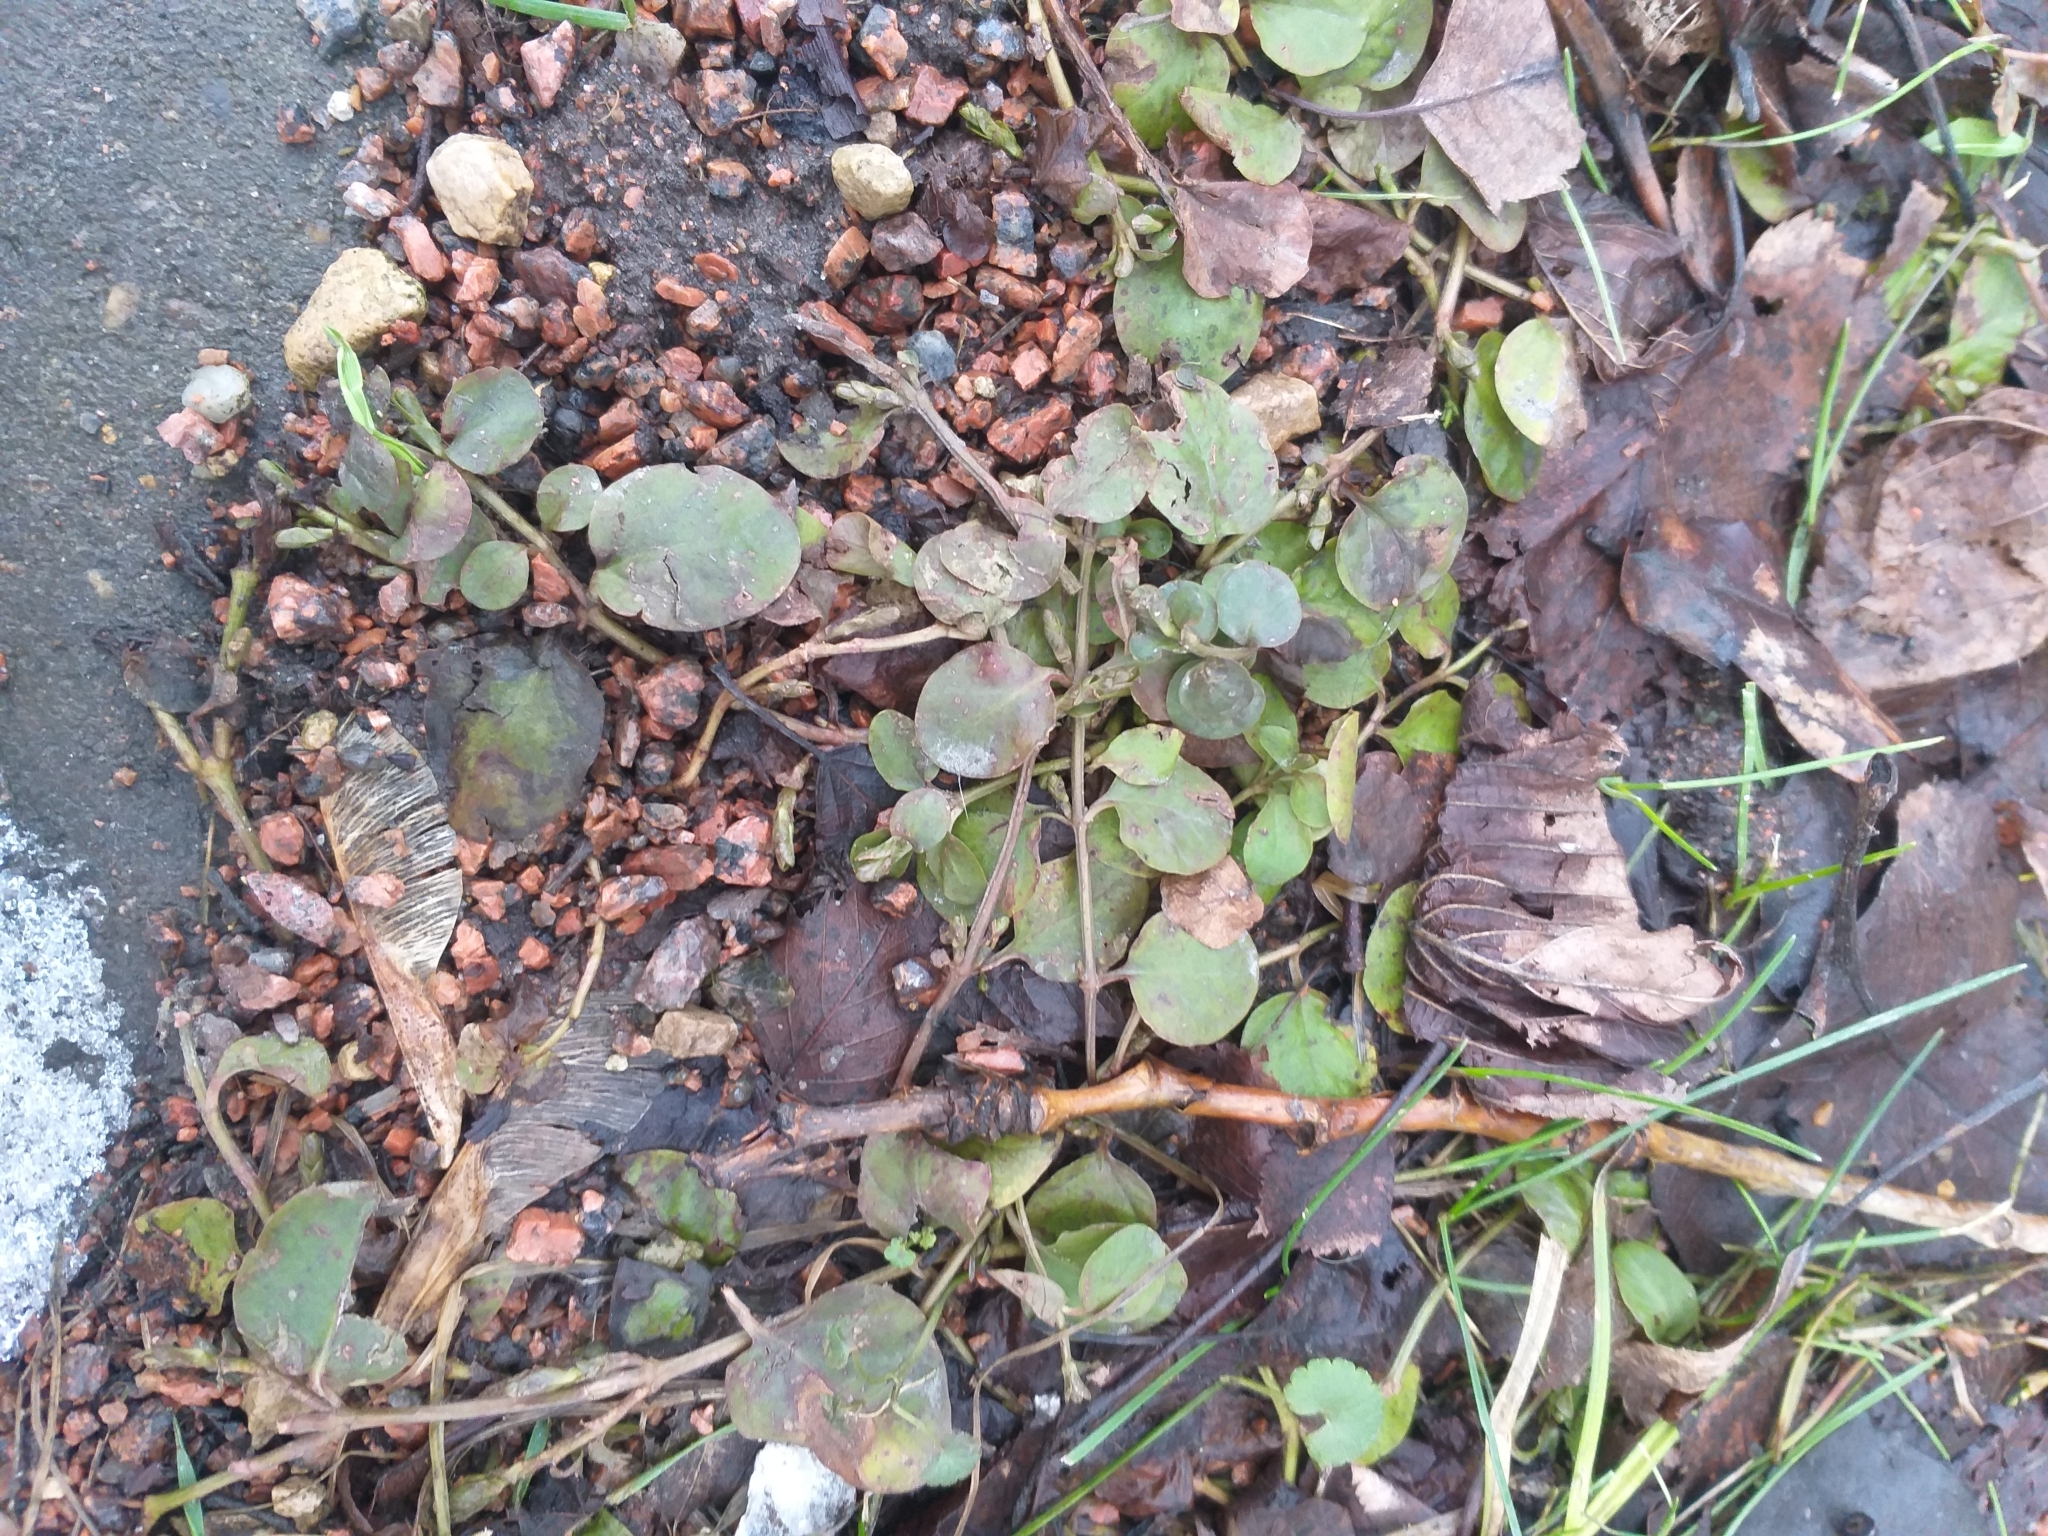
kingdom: Plantae
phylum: Tracheophyta
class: Magnoliopsida
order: Ericales
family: Primulaceae
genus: Lysimachia
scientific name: Lysimachia nummularia
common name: Moneywort
